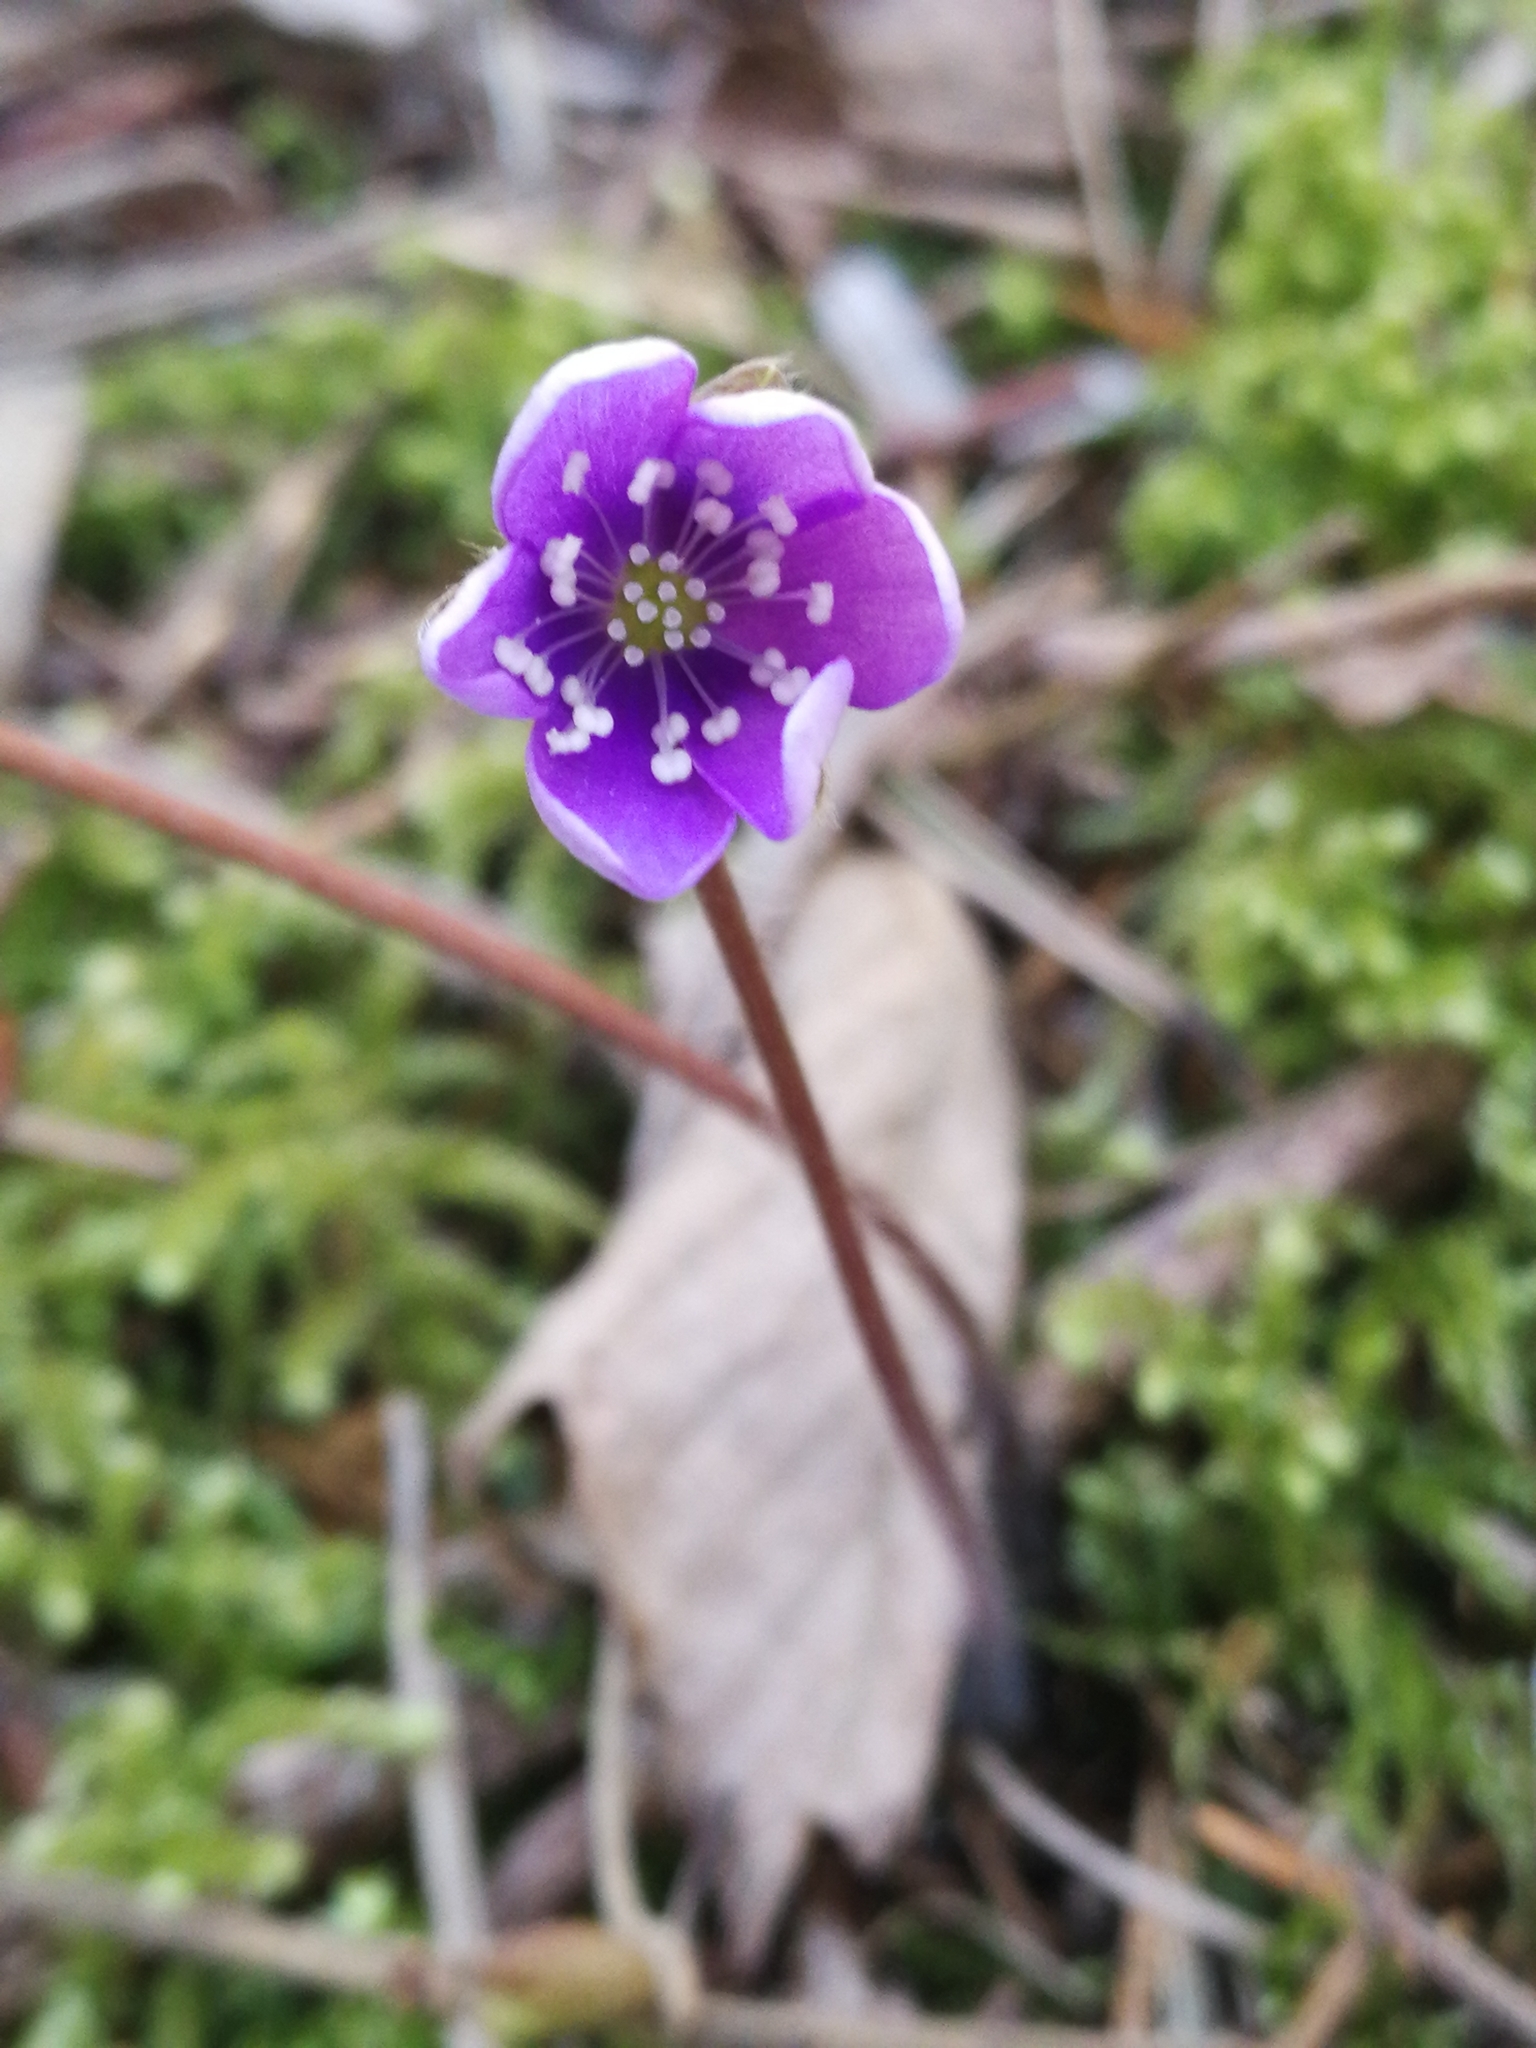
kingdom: Plantae
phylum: Tracheophyta
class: Magnoliopsida
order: Ranunculales
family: Ranunculaceae
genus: Hepatica
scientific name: Hepatica nobilis
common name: Liverleaf
